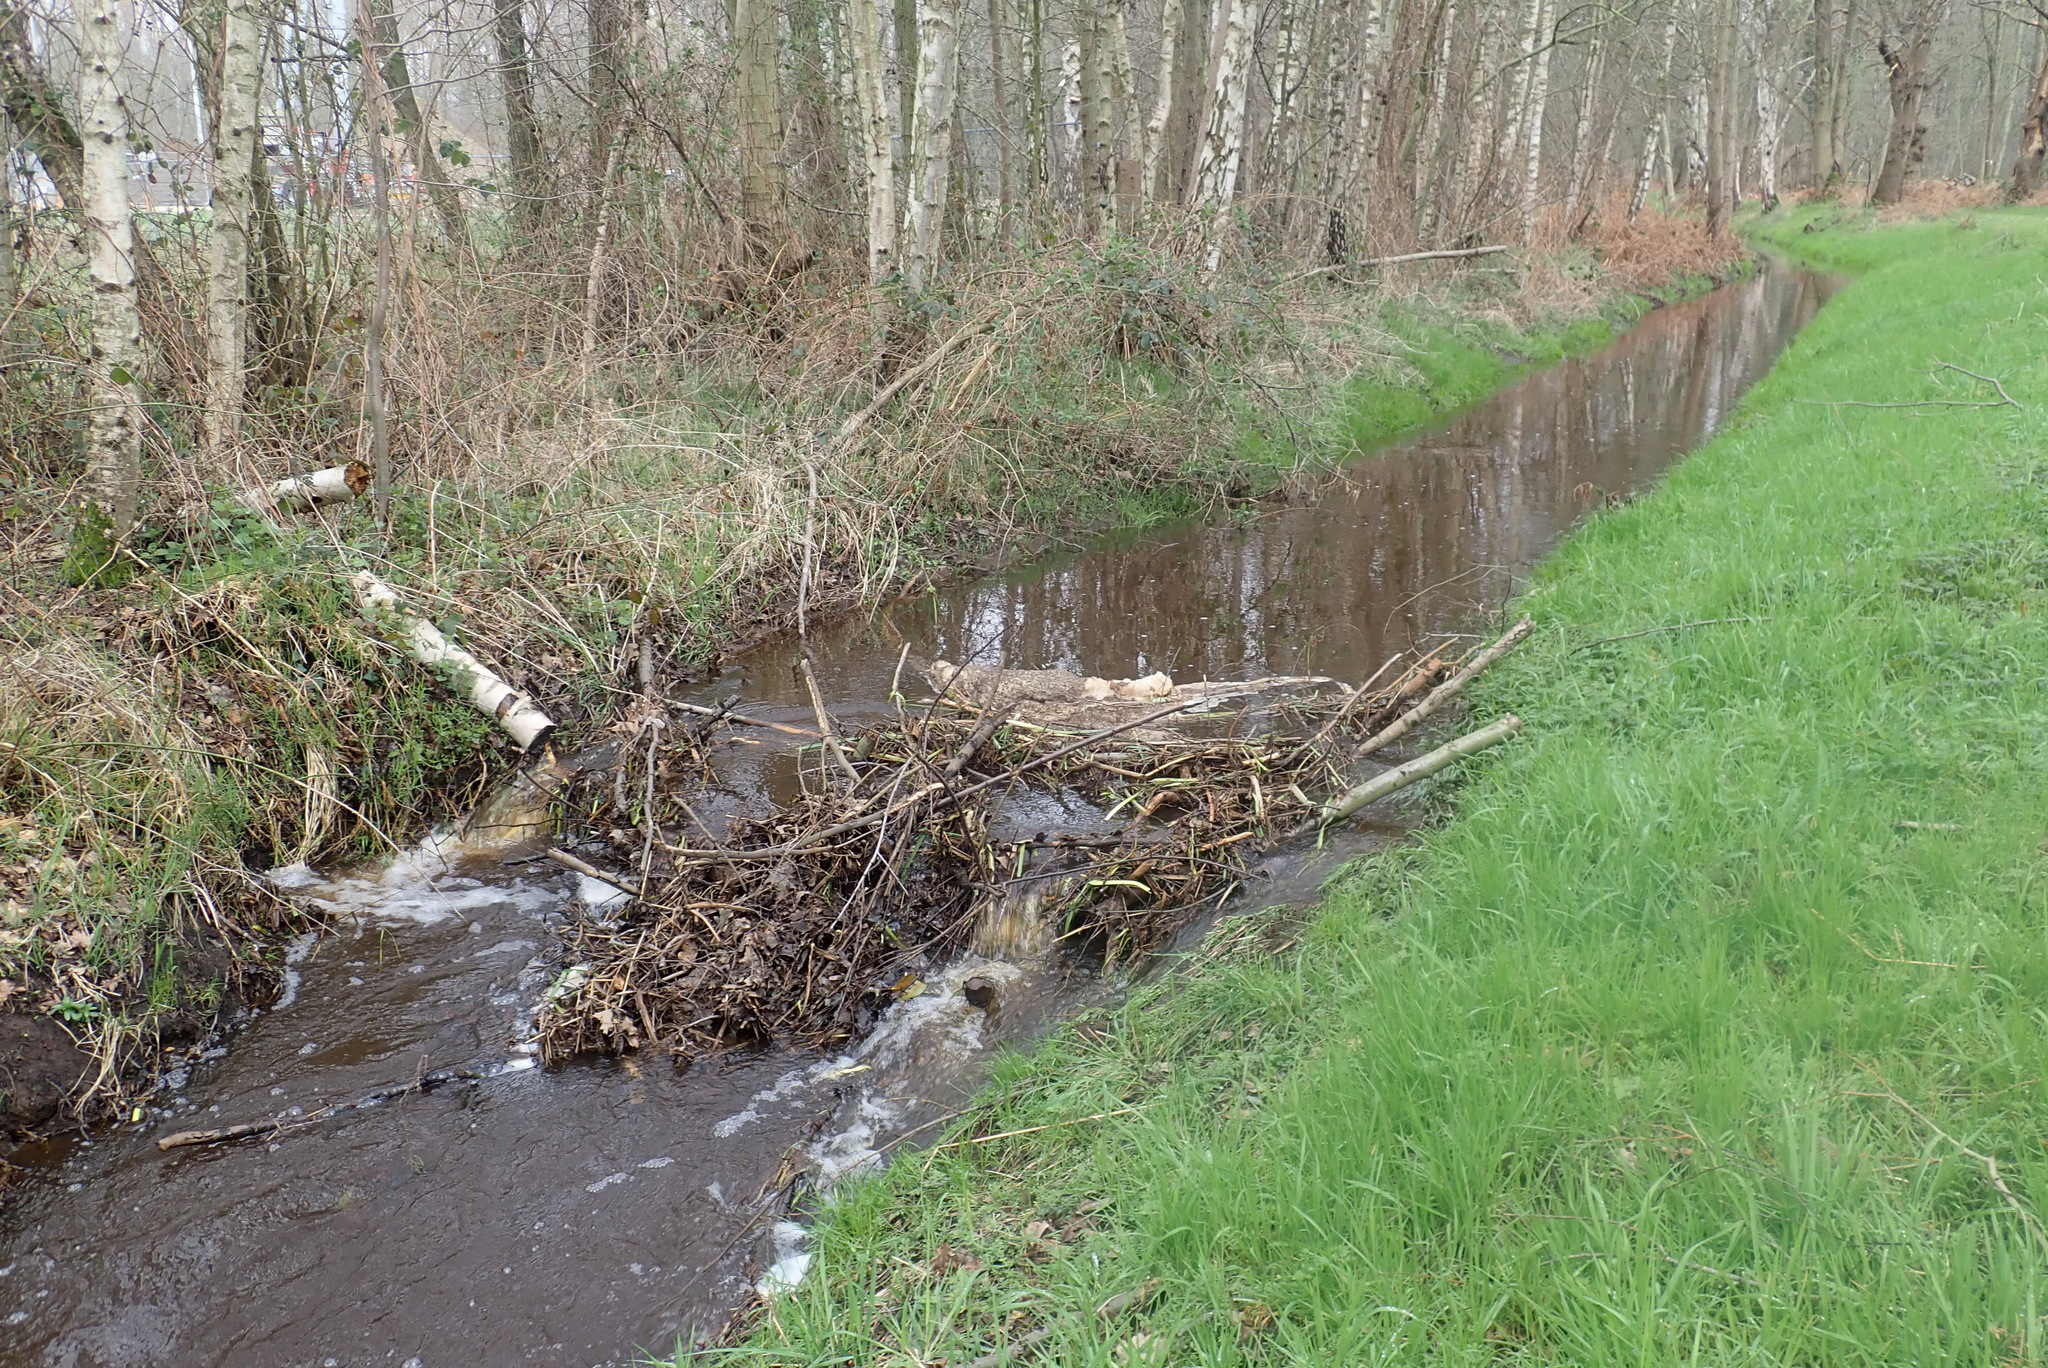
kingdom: Animalia
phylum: Chordata
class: Mammalia
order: Rodentia
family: Castoridae
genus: Castor
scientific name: Castor fiber
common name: Eurasian beaver
